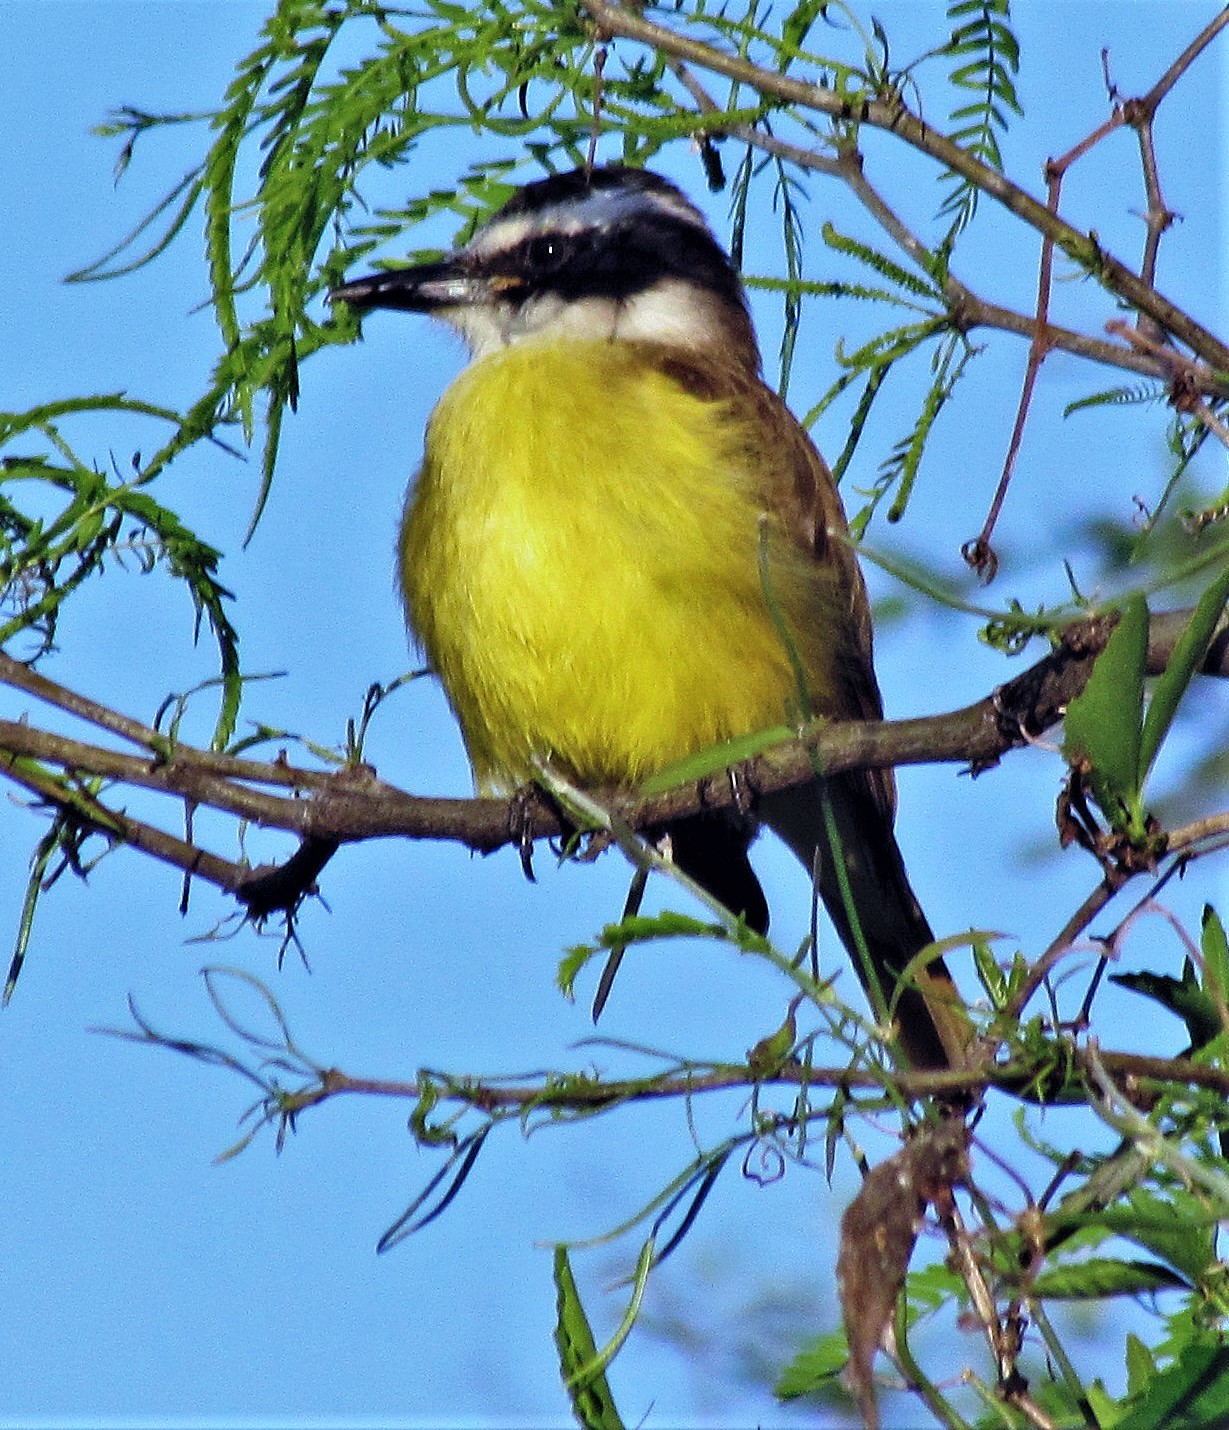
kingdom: Animalia
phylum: Chordata
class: Aves
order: Passeriformes
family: Tyrannidae
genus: Pitangus
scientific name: Pitangus sulphuratus
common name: Great kiskadee
